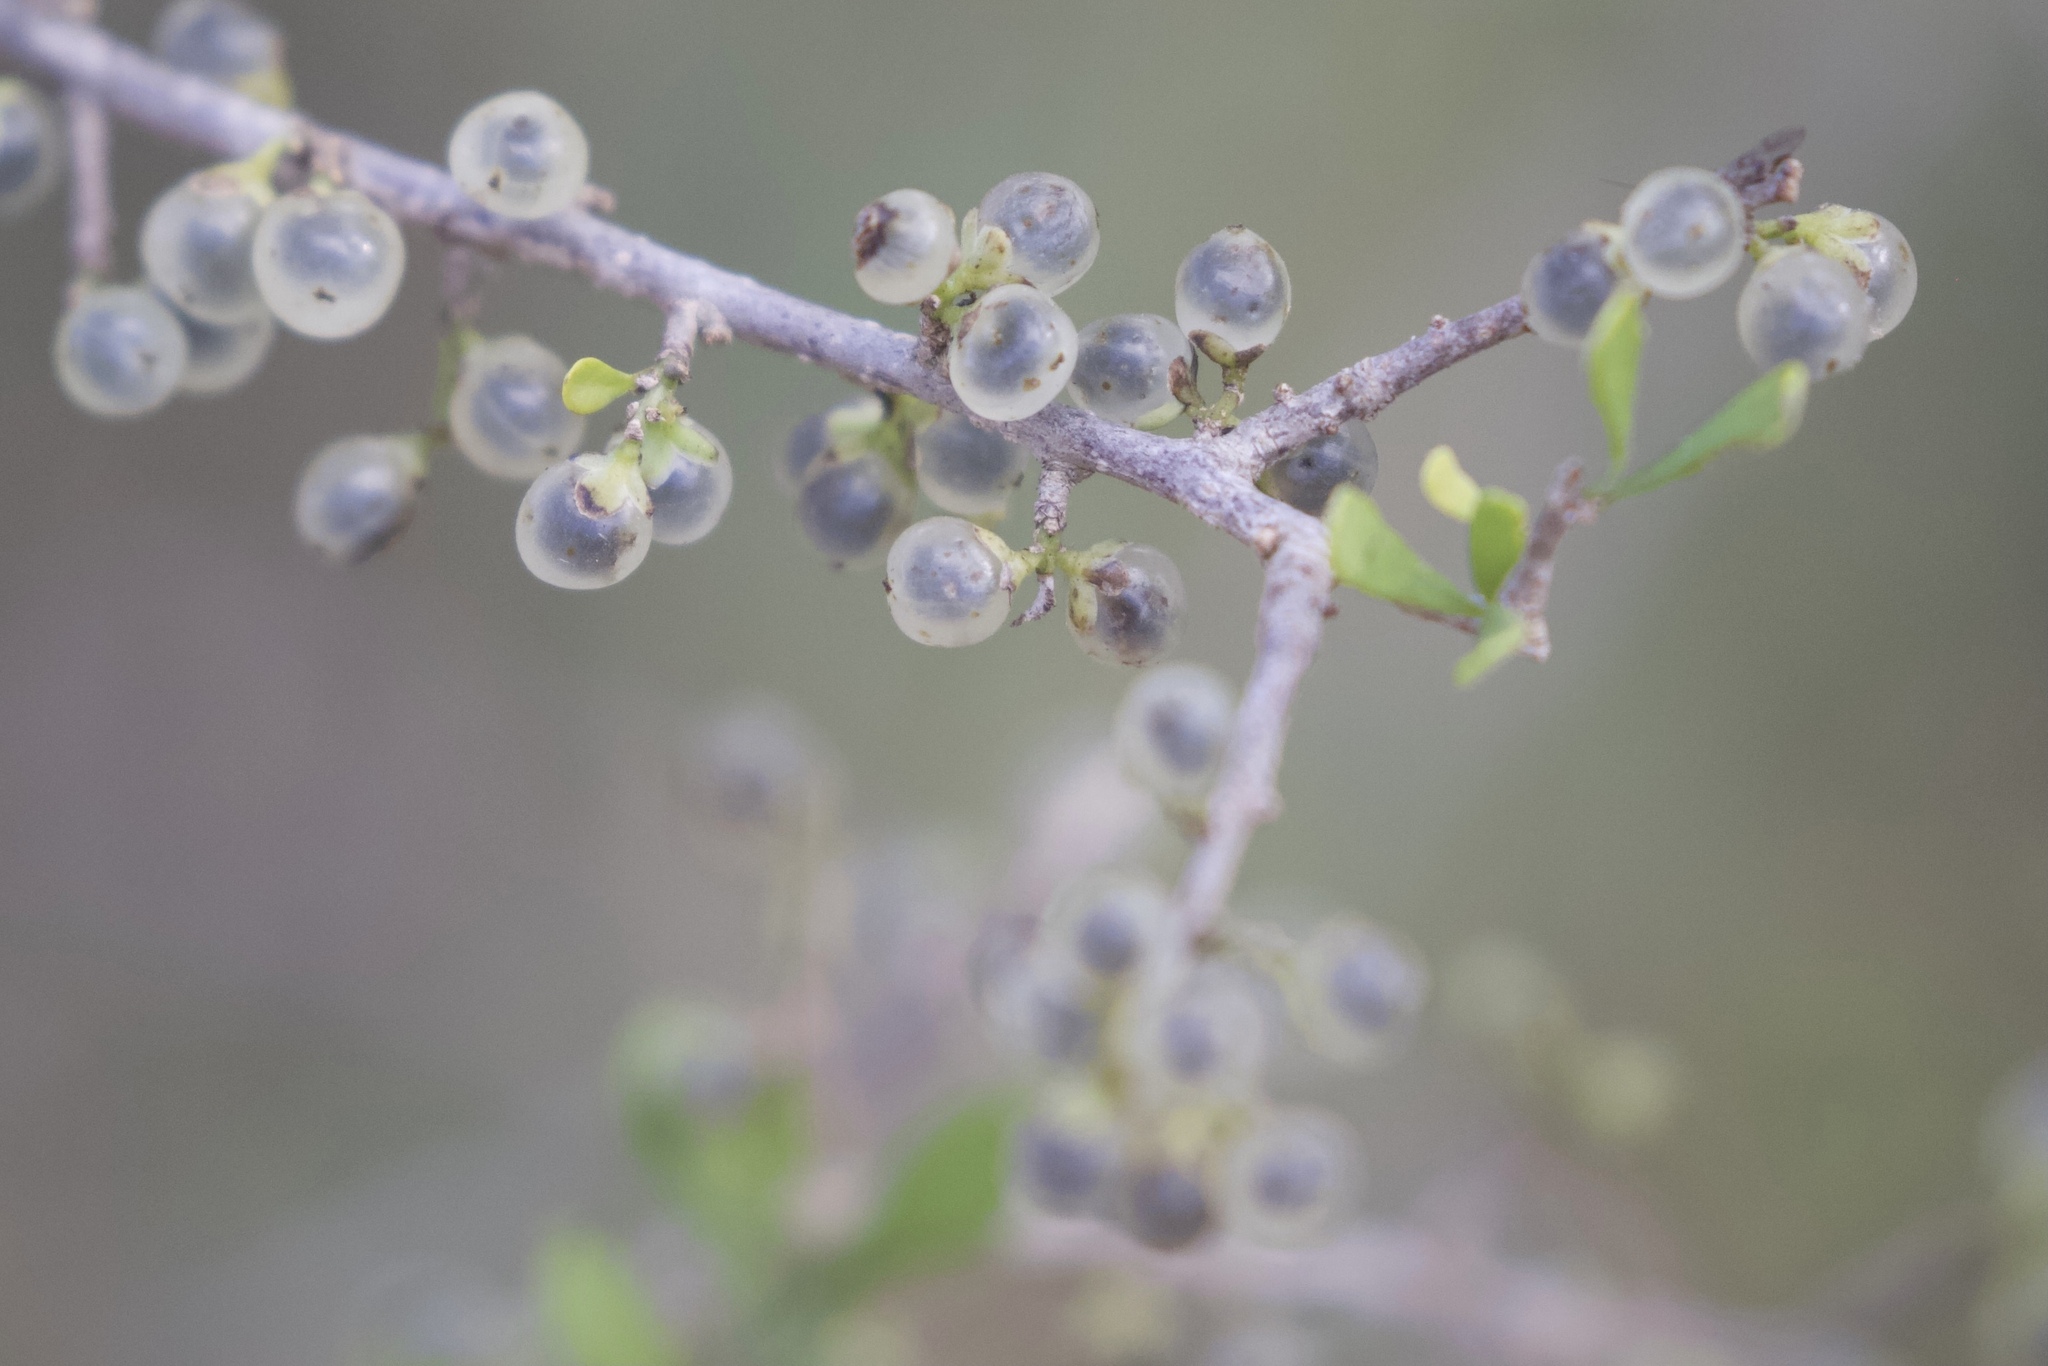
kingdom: Plantae
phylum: Tracheophyta
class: Magnoliopsida
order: Caryophyllales
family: Achatocarpaceae
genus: Phaulothamnus
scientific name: Phaulothamnus spinescens
